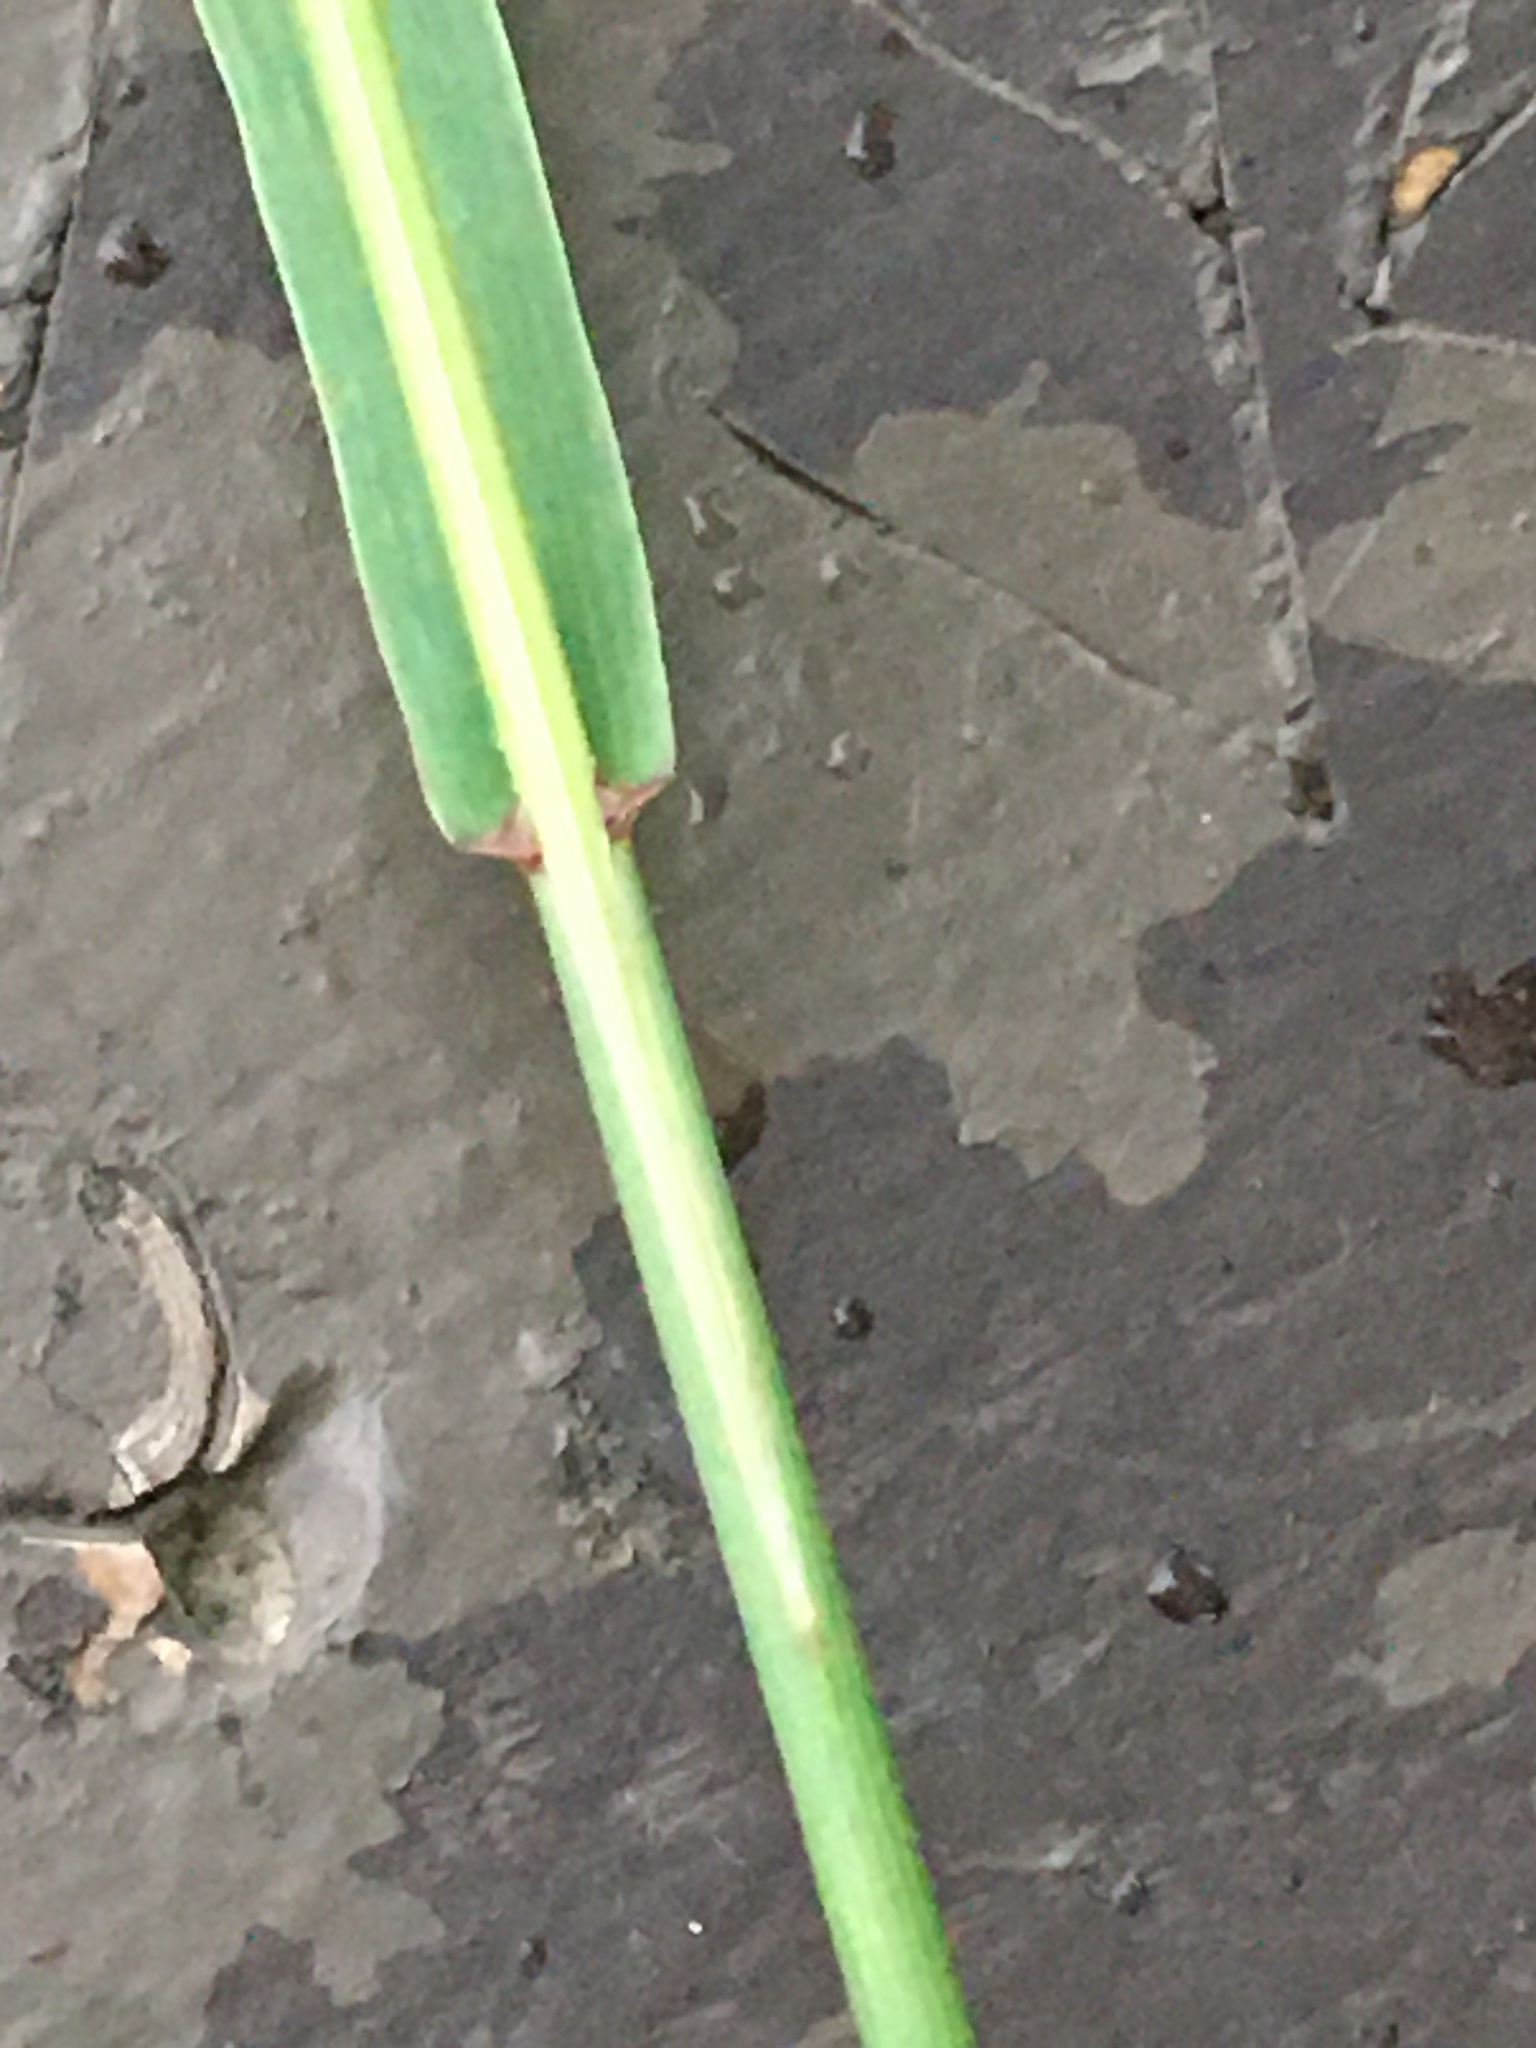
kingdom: Plantae
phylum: Tracheophyta
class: Liliopsida
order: Poales
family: Poaceae
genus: Bromus
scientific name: Bromus inermis
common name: Smooth brome
